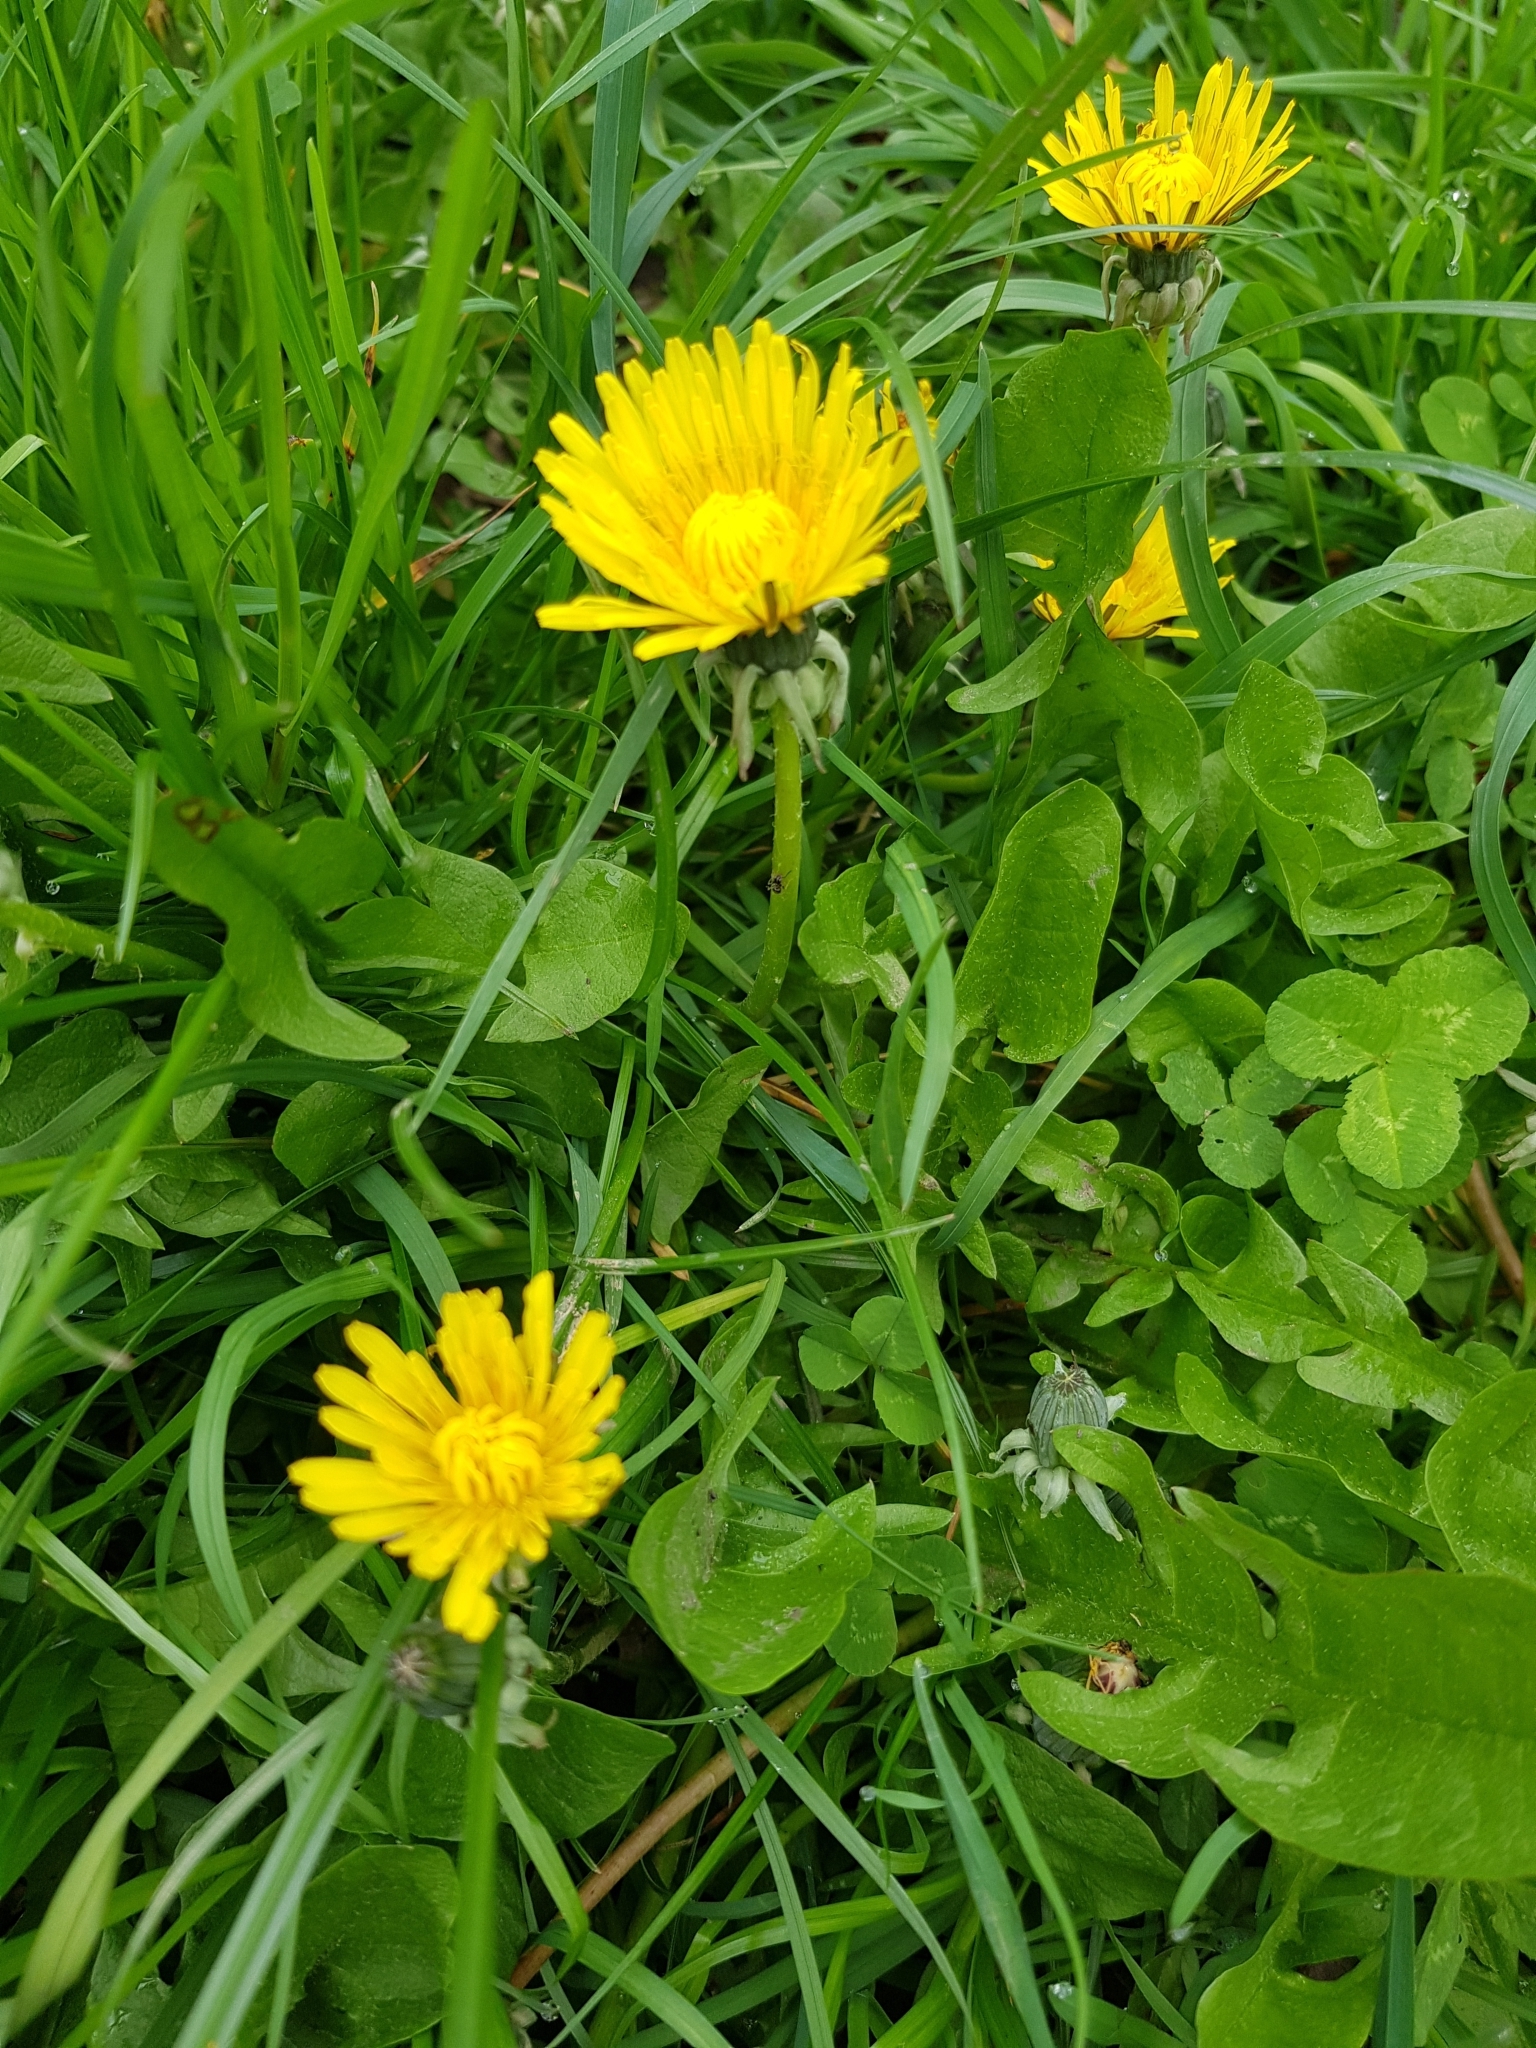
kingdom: Plantae
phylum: Tracheophyta
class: Magnoliopsida
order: Asterales
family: Asteraceae
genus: Taraxacum
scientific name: Taraxacum officinale
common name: Common dandelion
